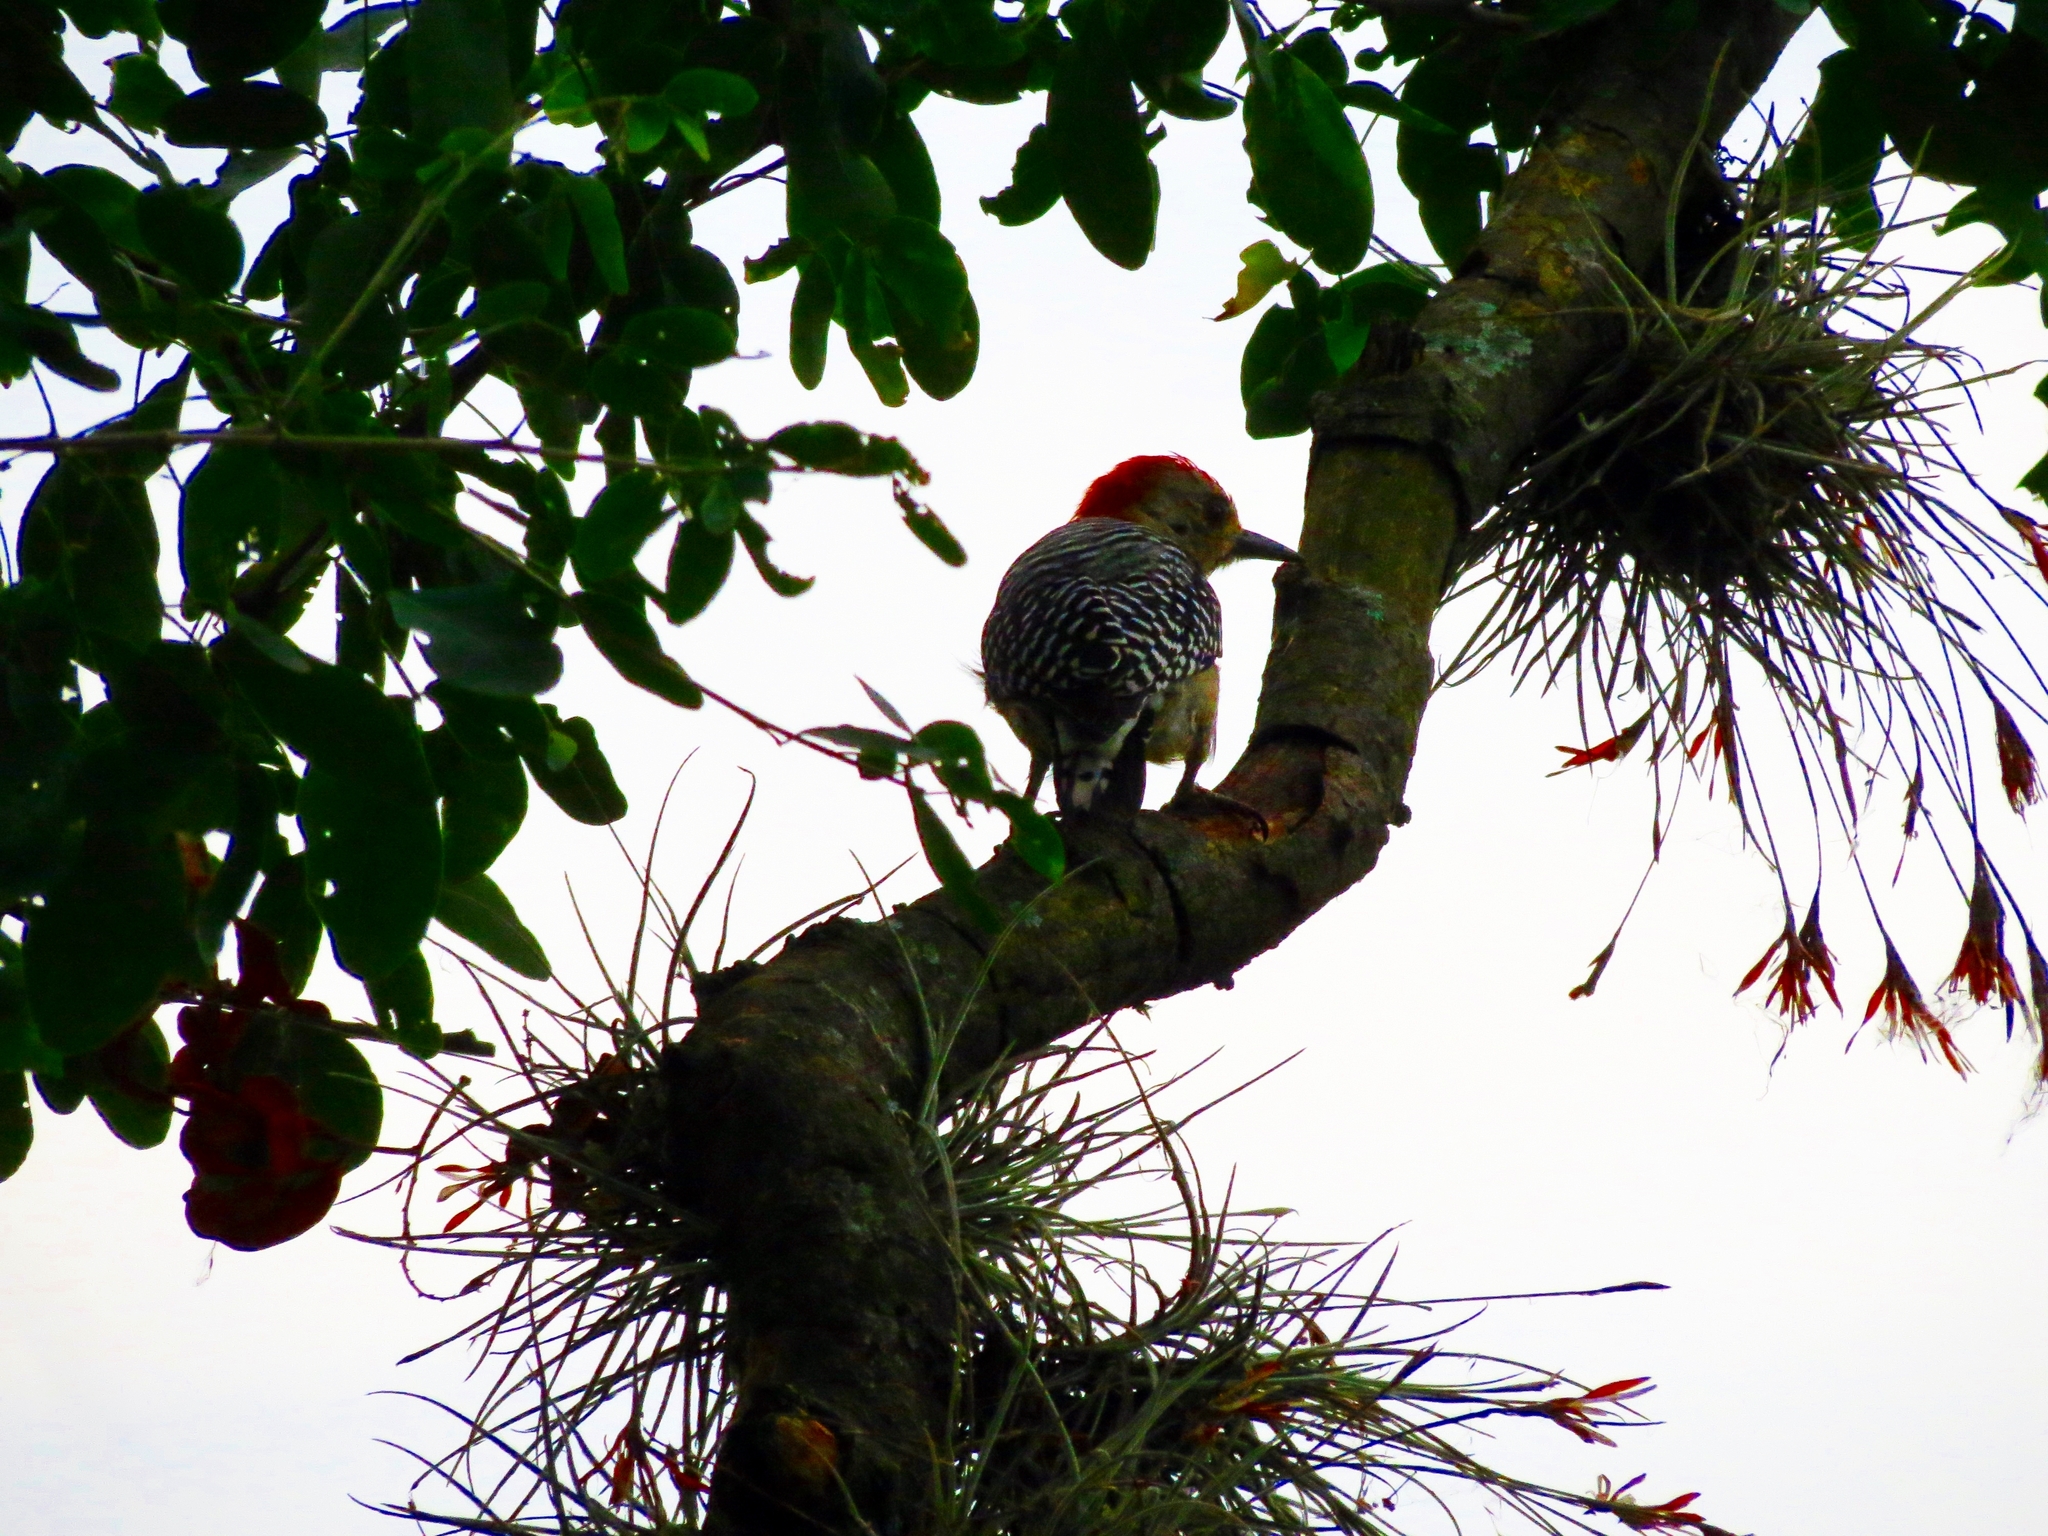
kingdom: Animalia
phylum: Chordata
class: Aves
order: Piciformes
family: Picidae
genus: Melanerpes
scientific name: Melanerpes rubricapillus
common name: Red-crowned woodpecker
